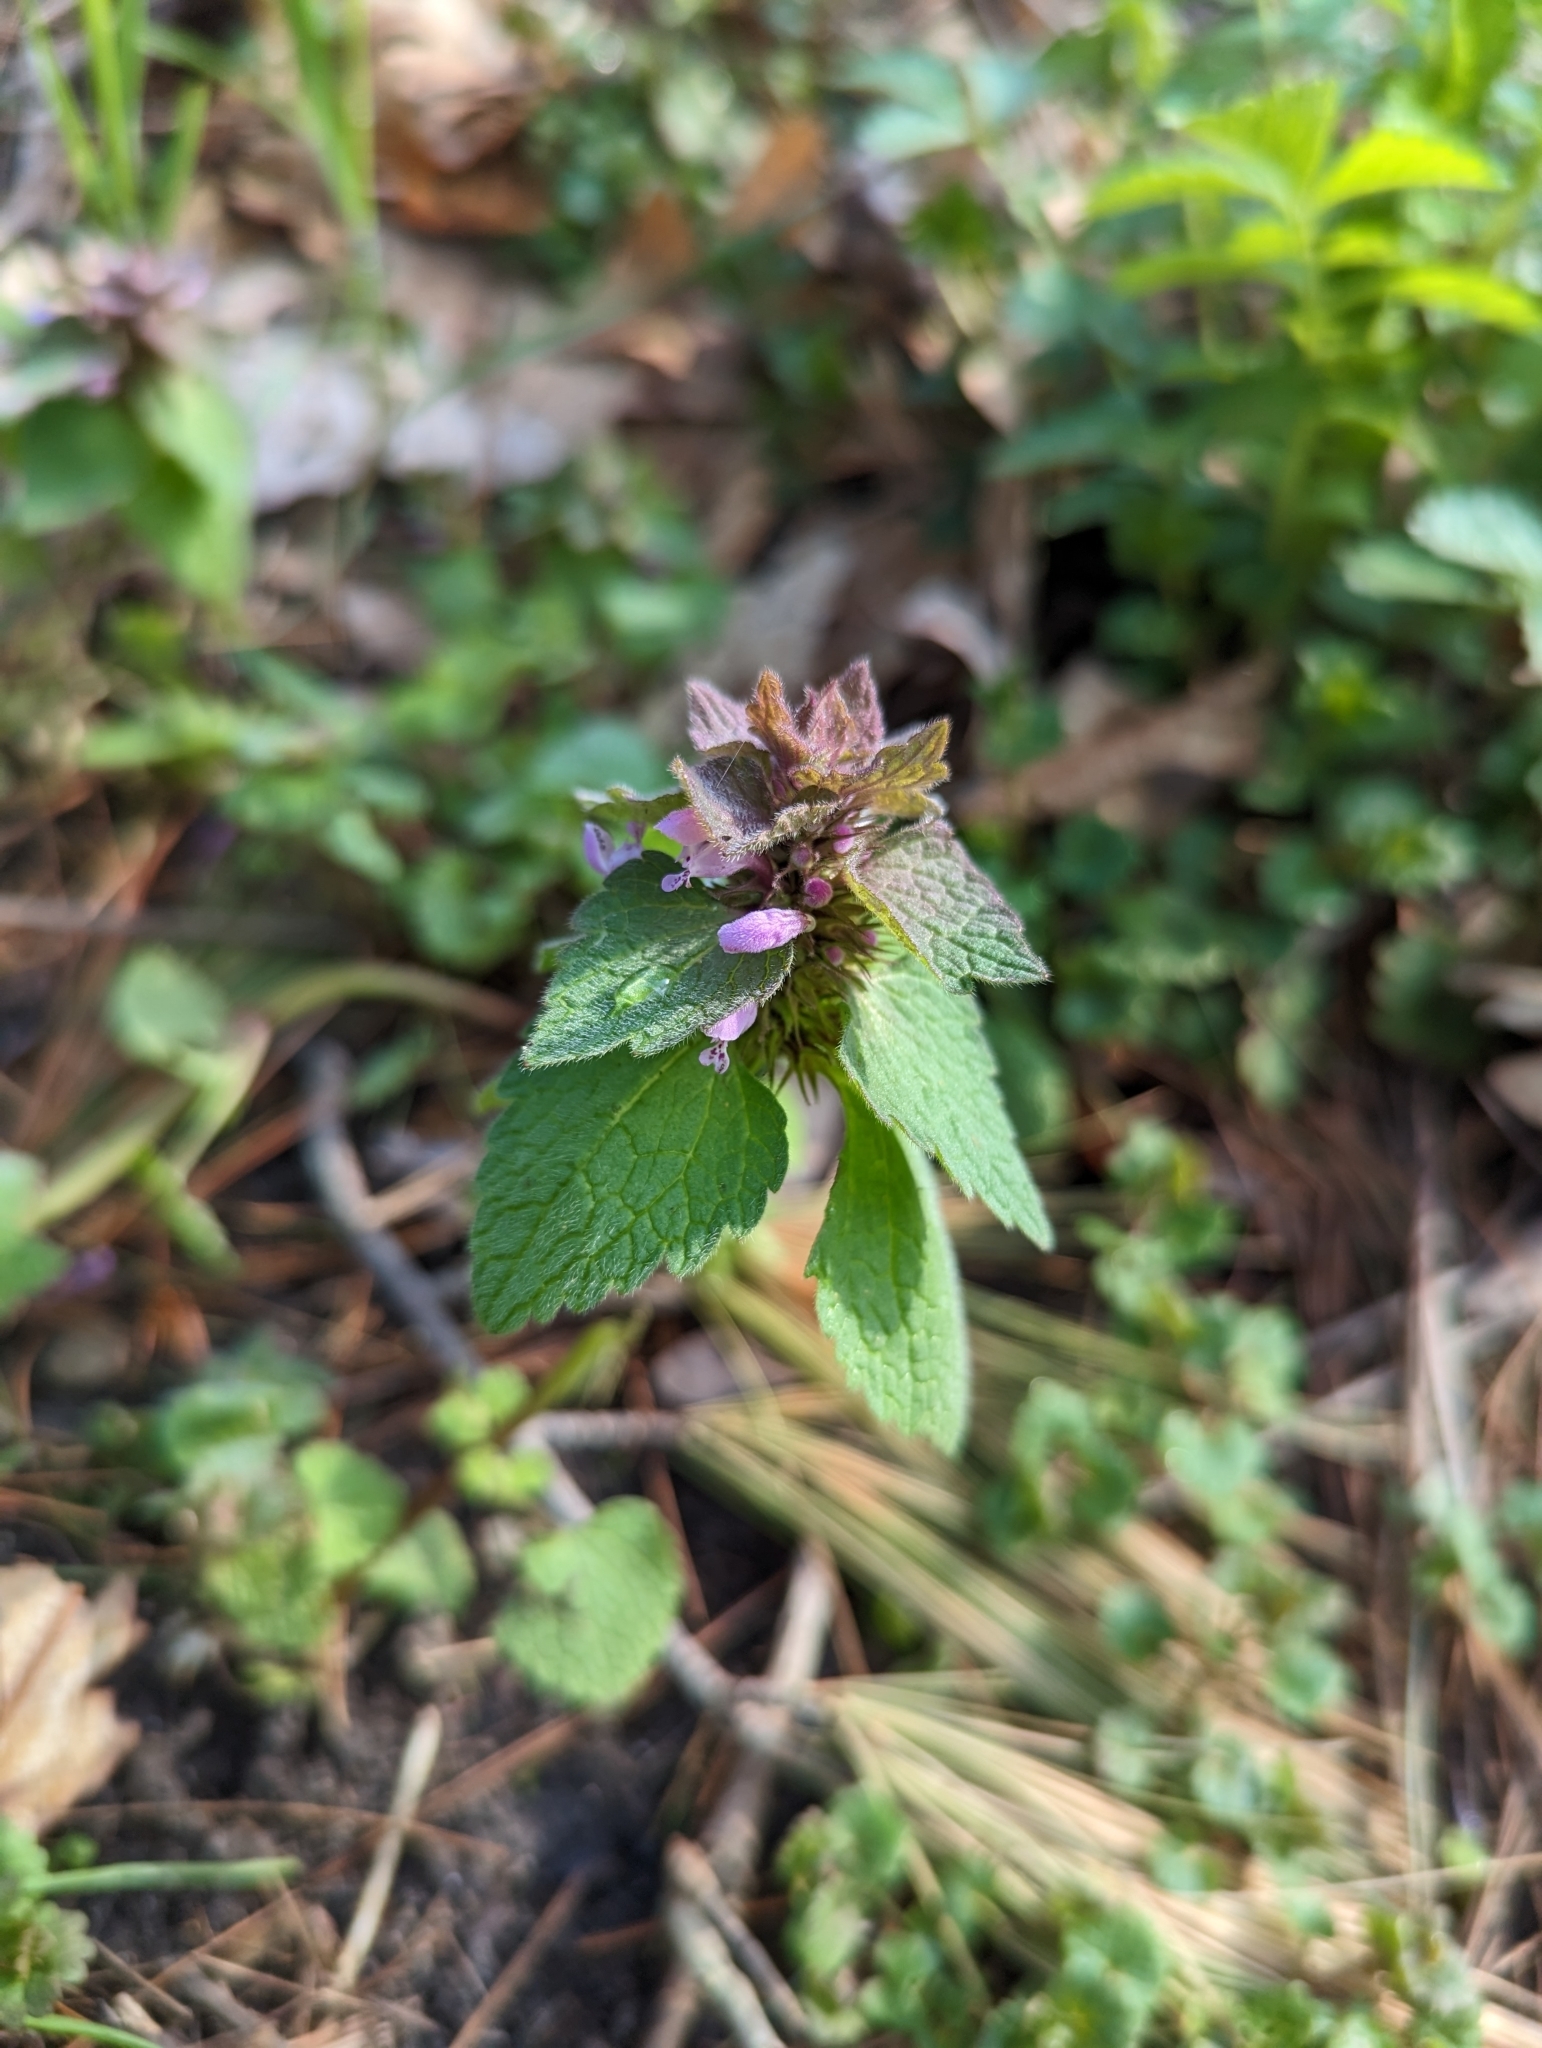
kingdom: Plantae
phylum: Tracheophyta
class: Magnoliopsida
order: Lamiales
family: Lamiaceae
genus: Lamium
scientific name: Lamium purpureum
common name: Red dead-nettle
